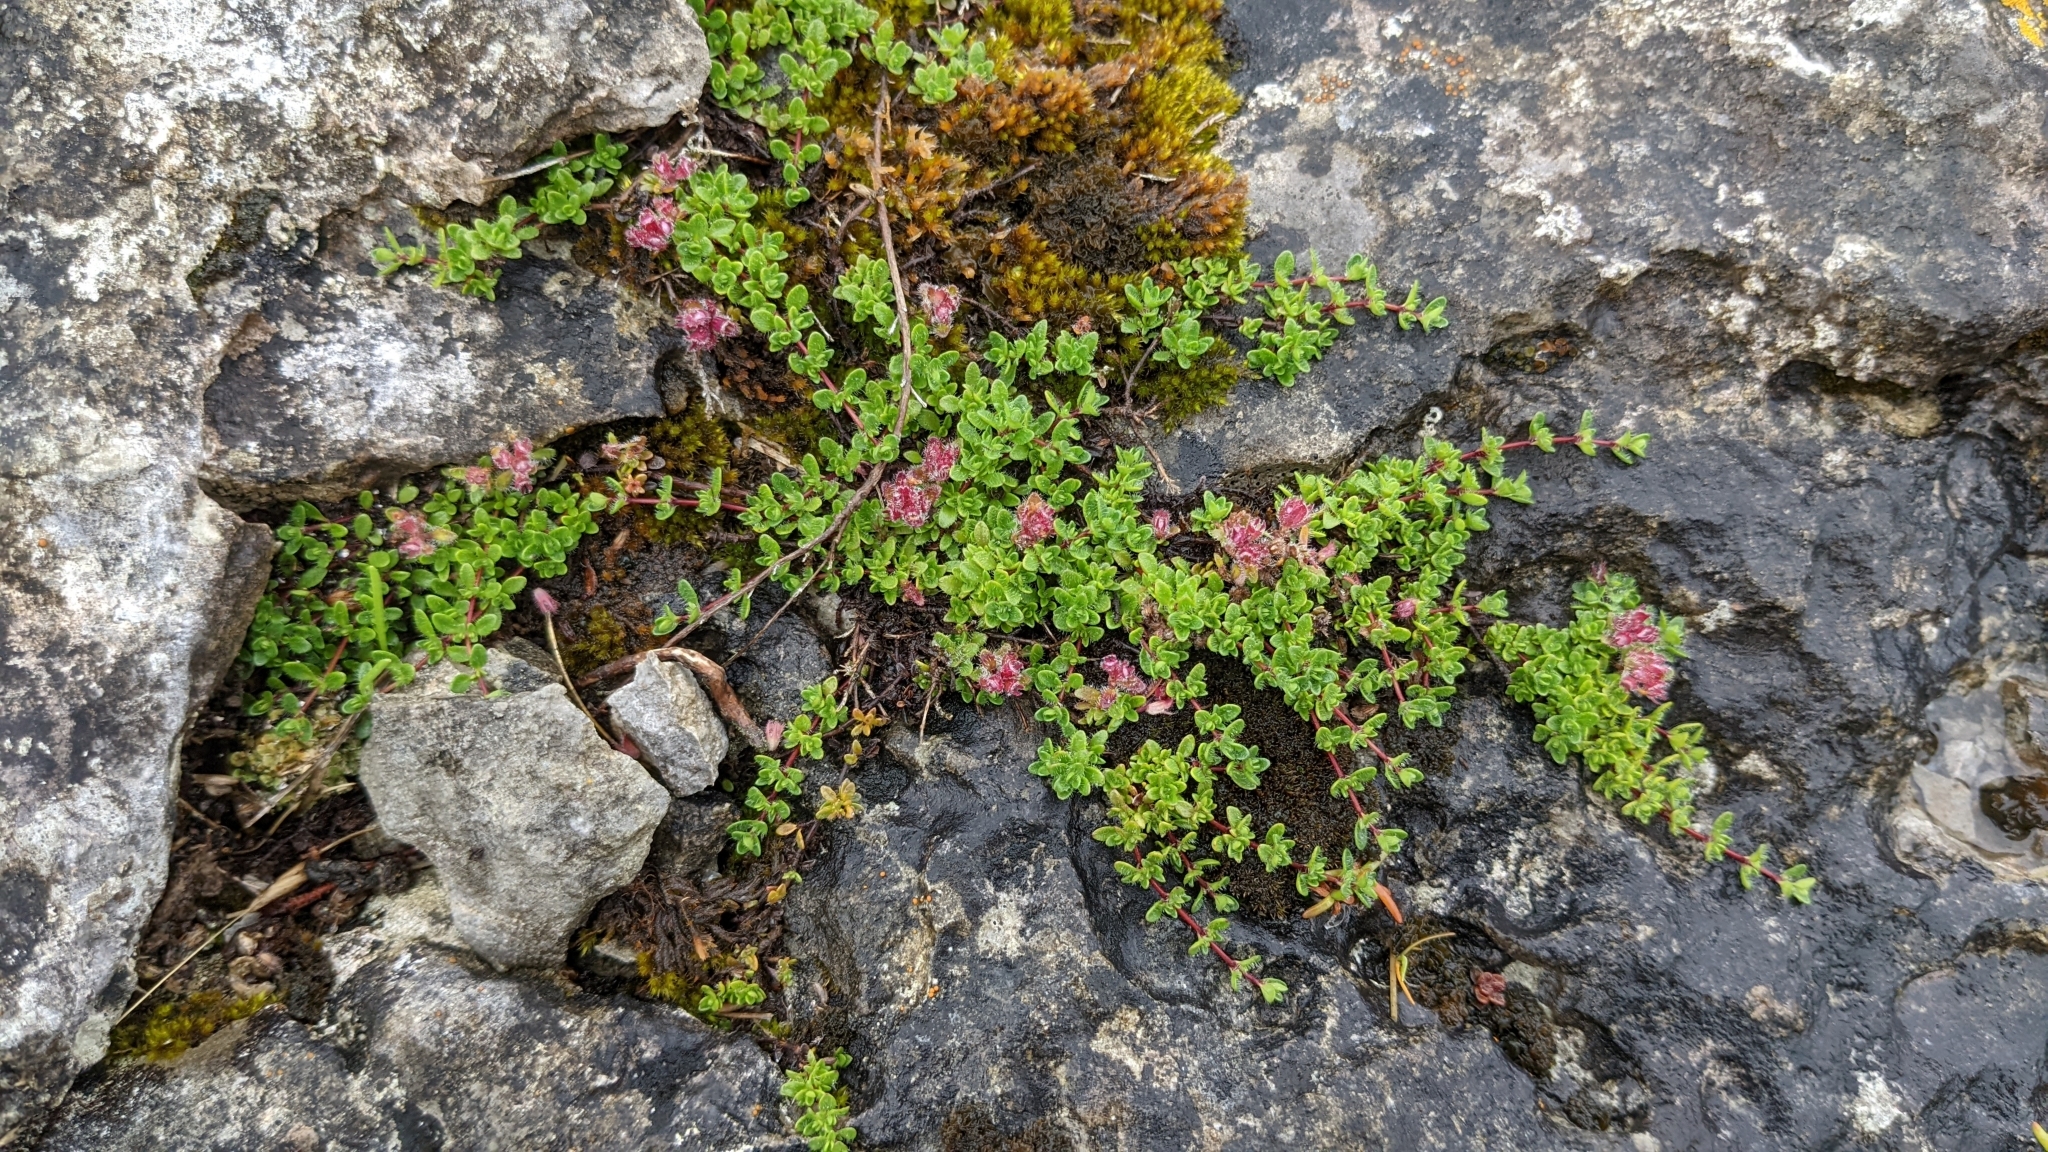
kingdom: Plantae
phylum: Tracheophyta
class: Magnoliopsida
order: Ericales
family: Primulaceae
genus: Lysimachia
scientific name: Lysimachia maritima
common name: Sea milkwort
